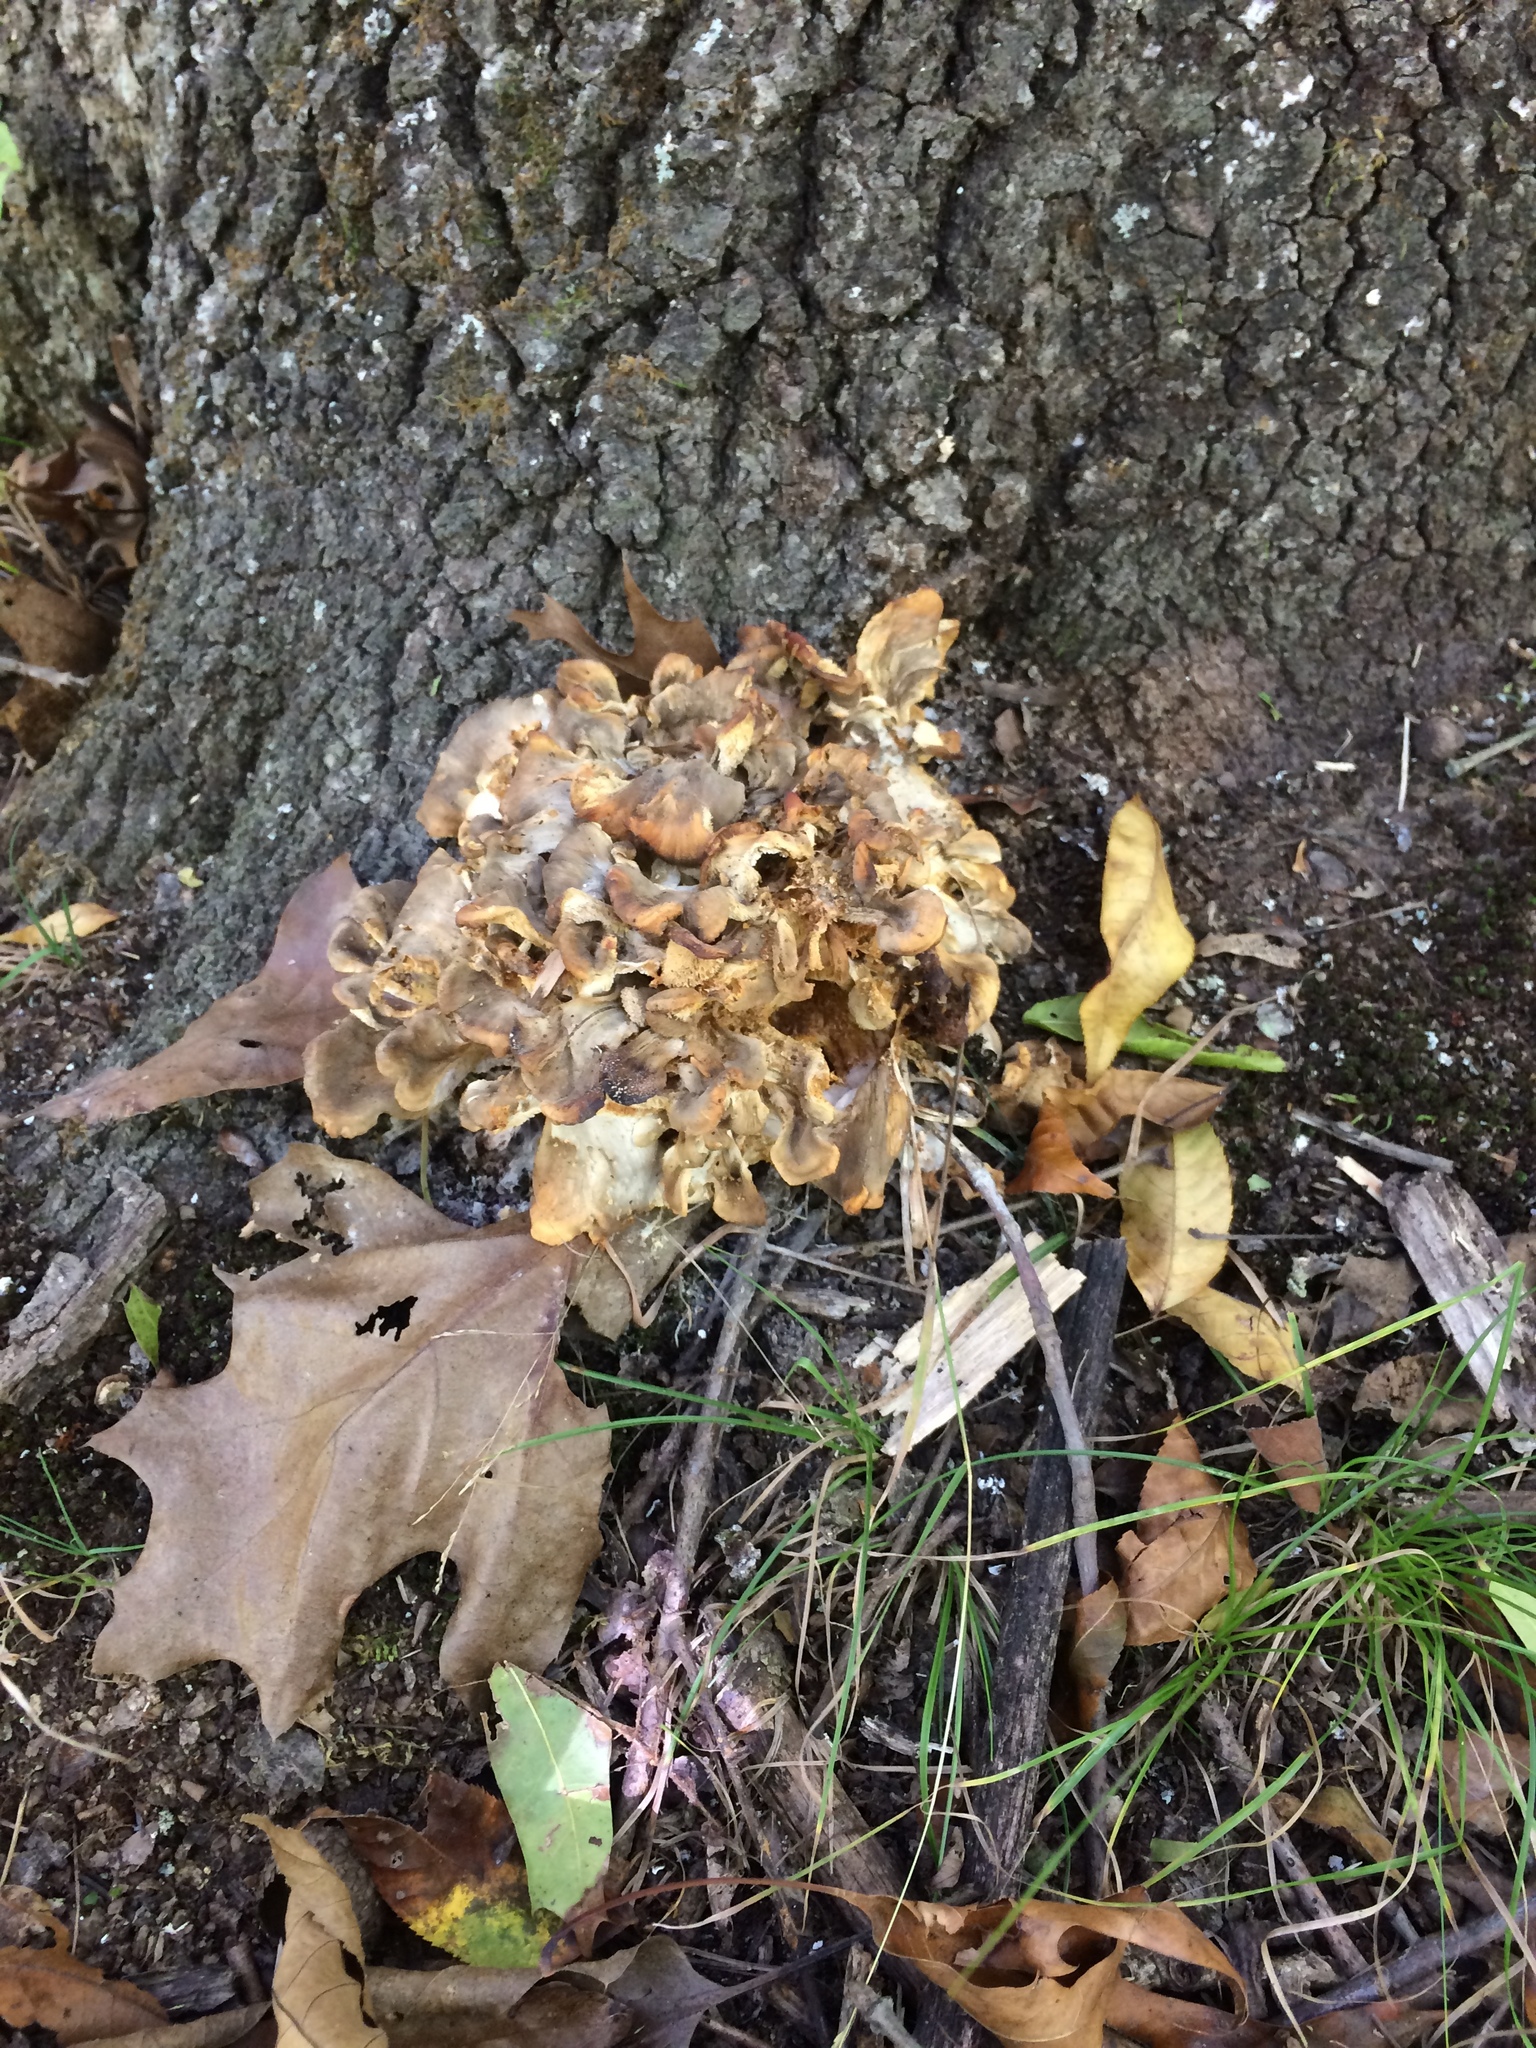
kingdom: Fungi
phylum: Basidiomycota
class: Agaricomycetes
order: Polyporales
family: Grifolaceae
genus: Grifola
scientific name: Grifola frondosa
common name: Hen of the woods
